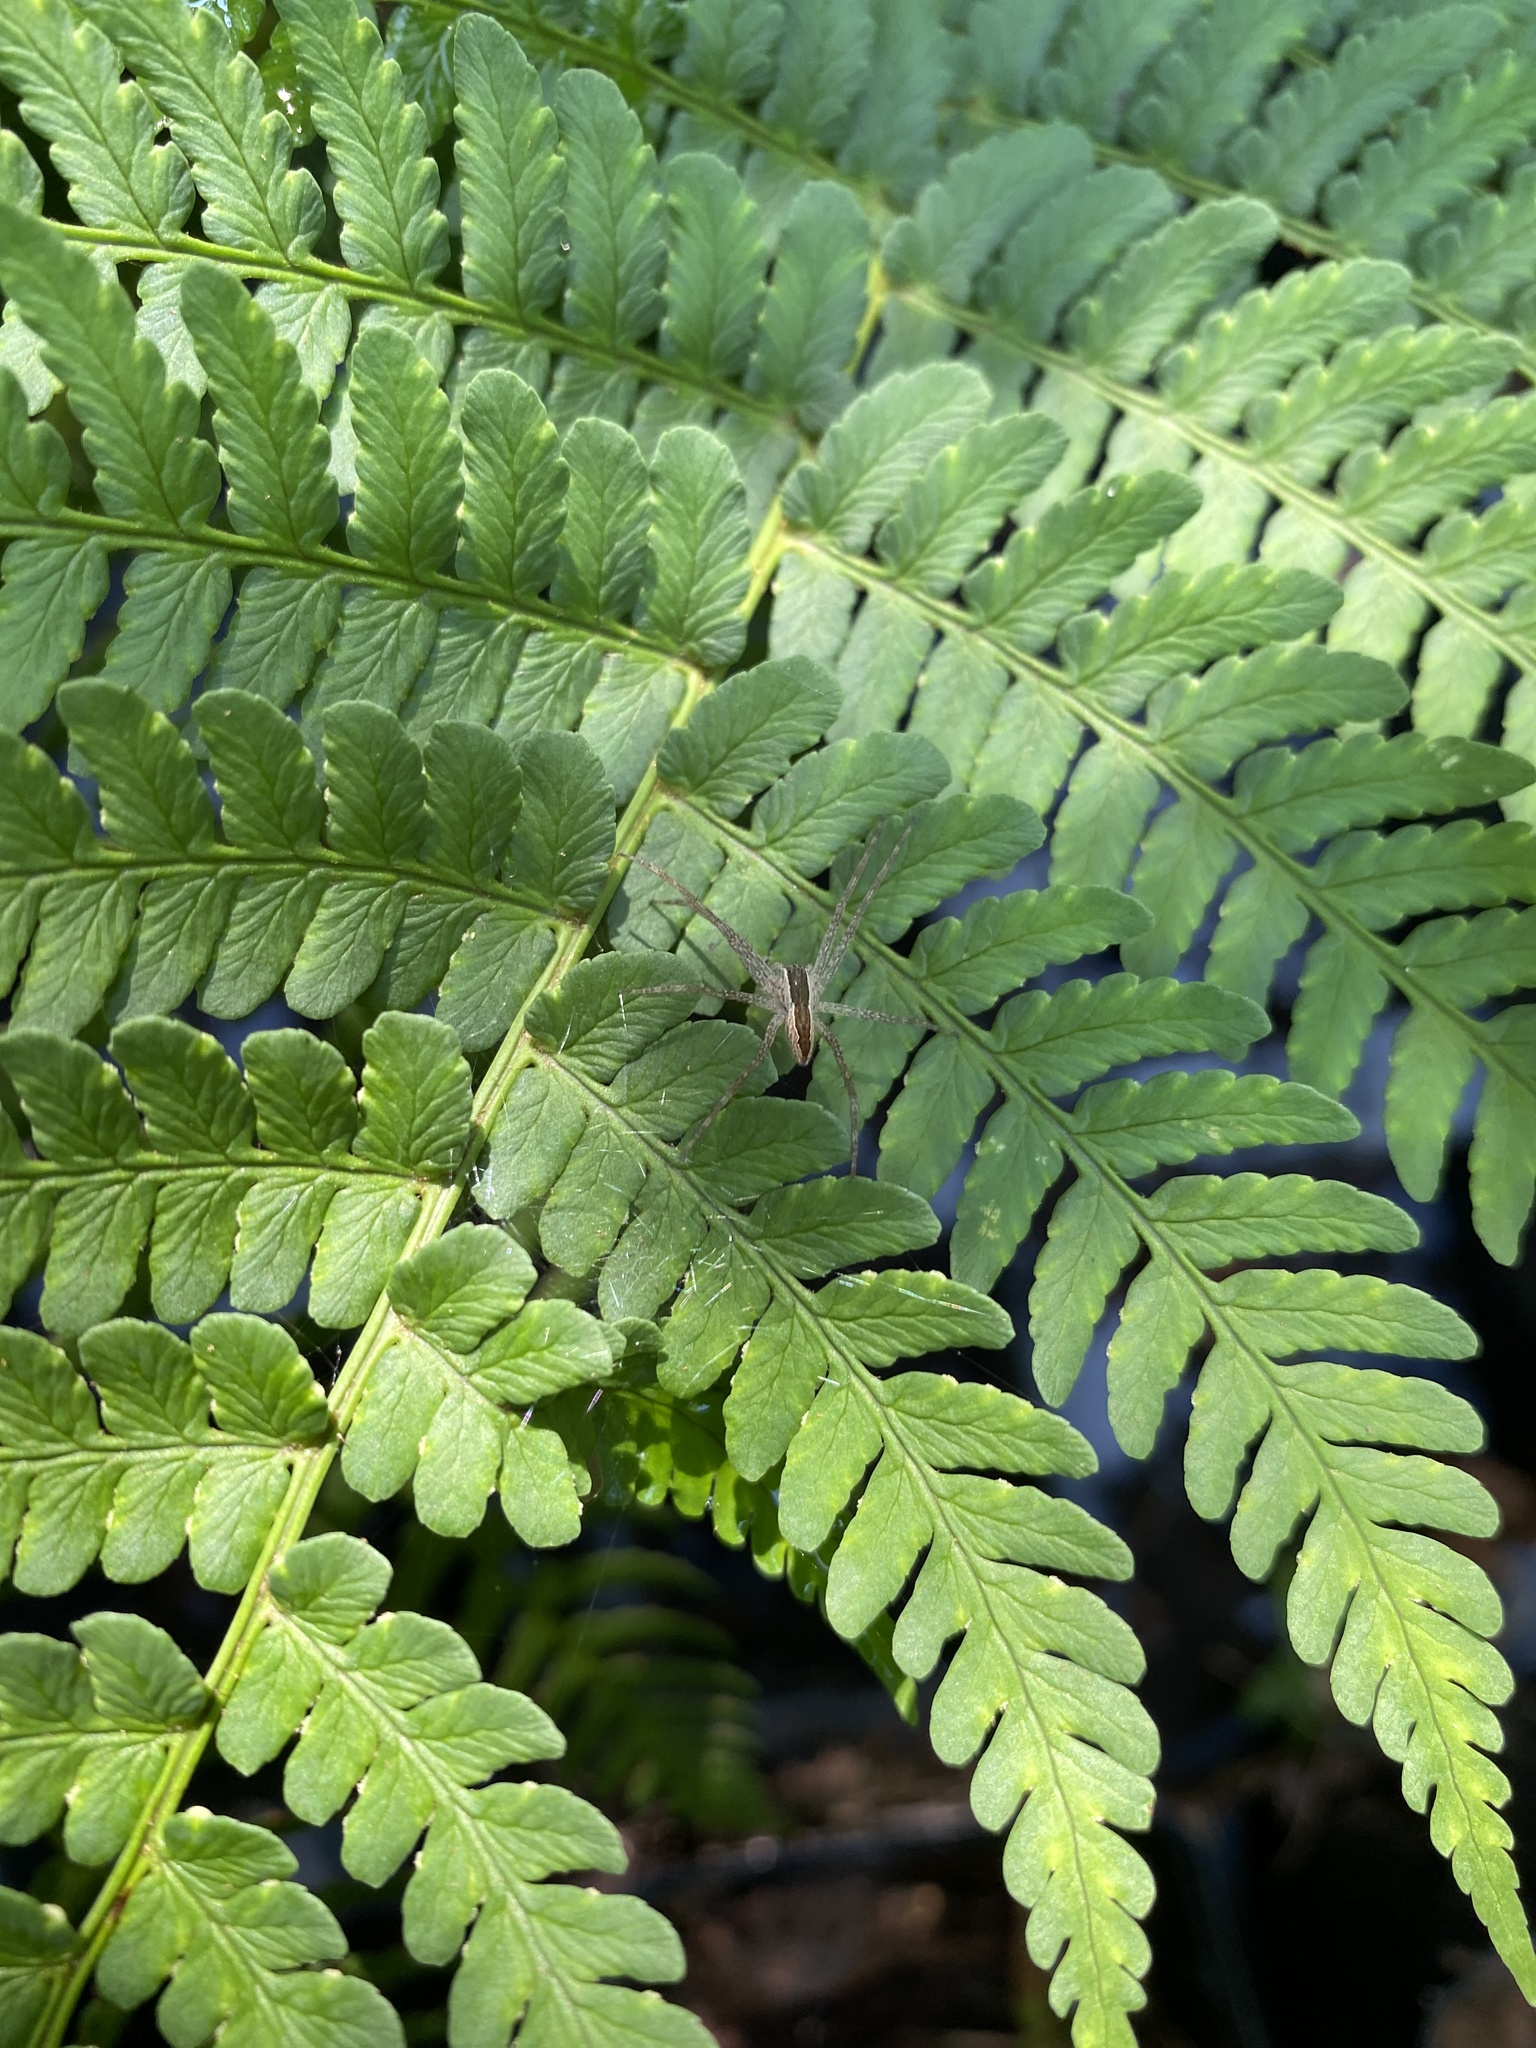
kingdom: Animalia
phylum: Arthropoda
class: Arachnida
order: Araneae
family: Pisauridae
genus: Pisaurina
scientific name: Pisaurina mira
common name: American nursery web spider
